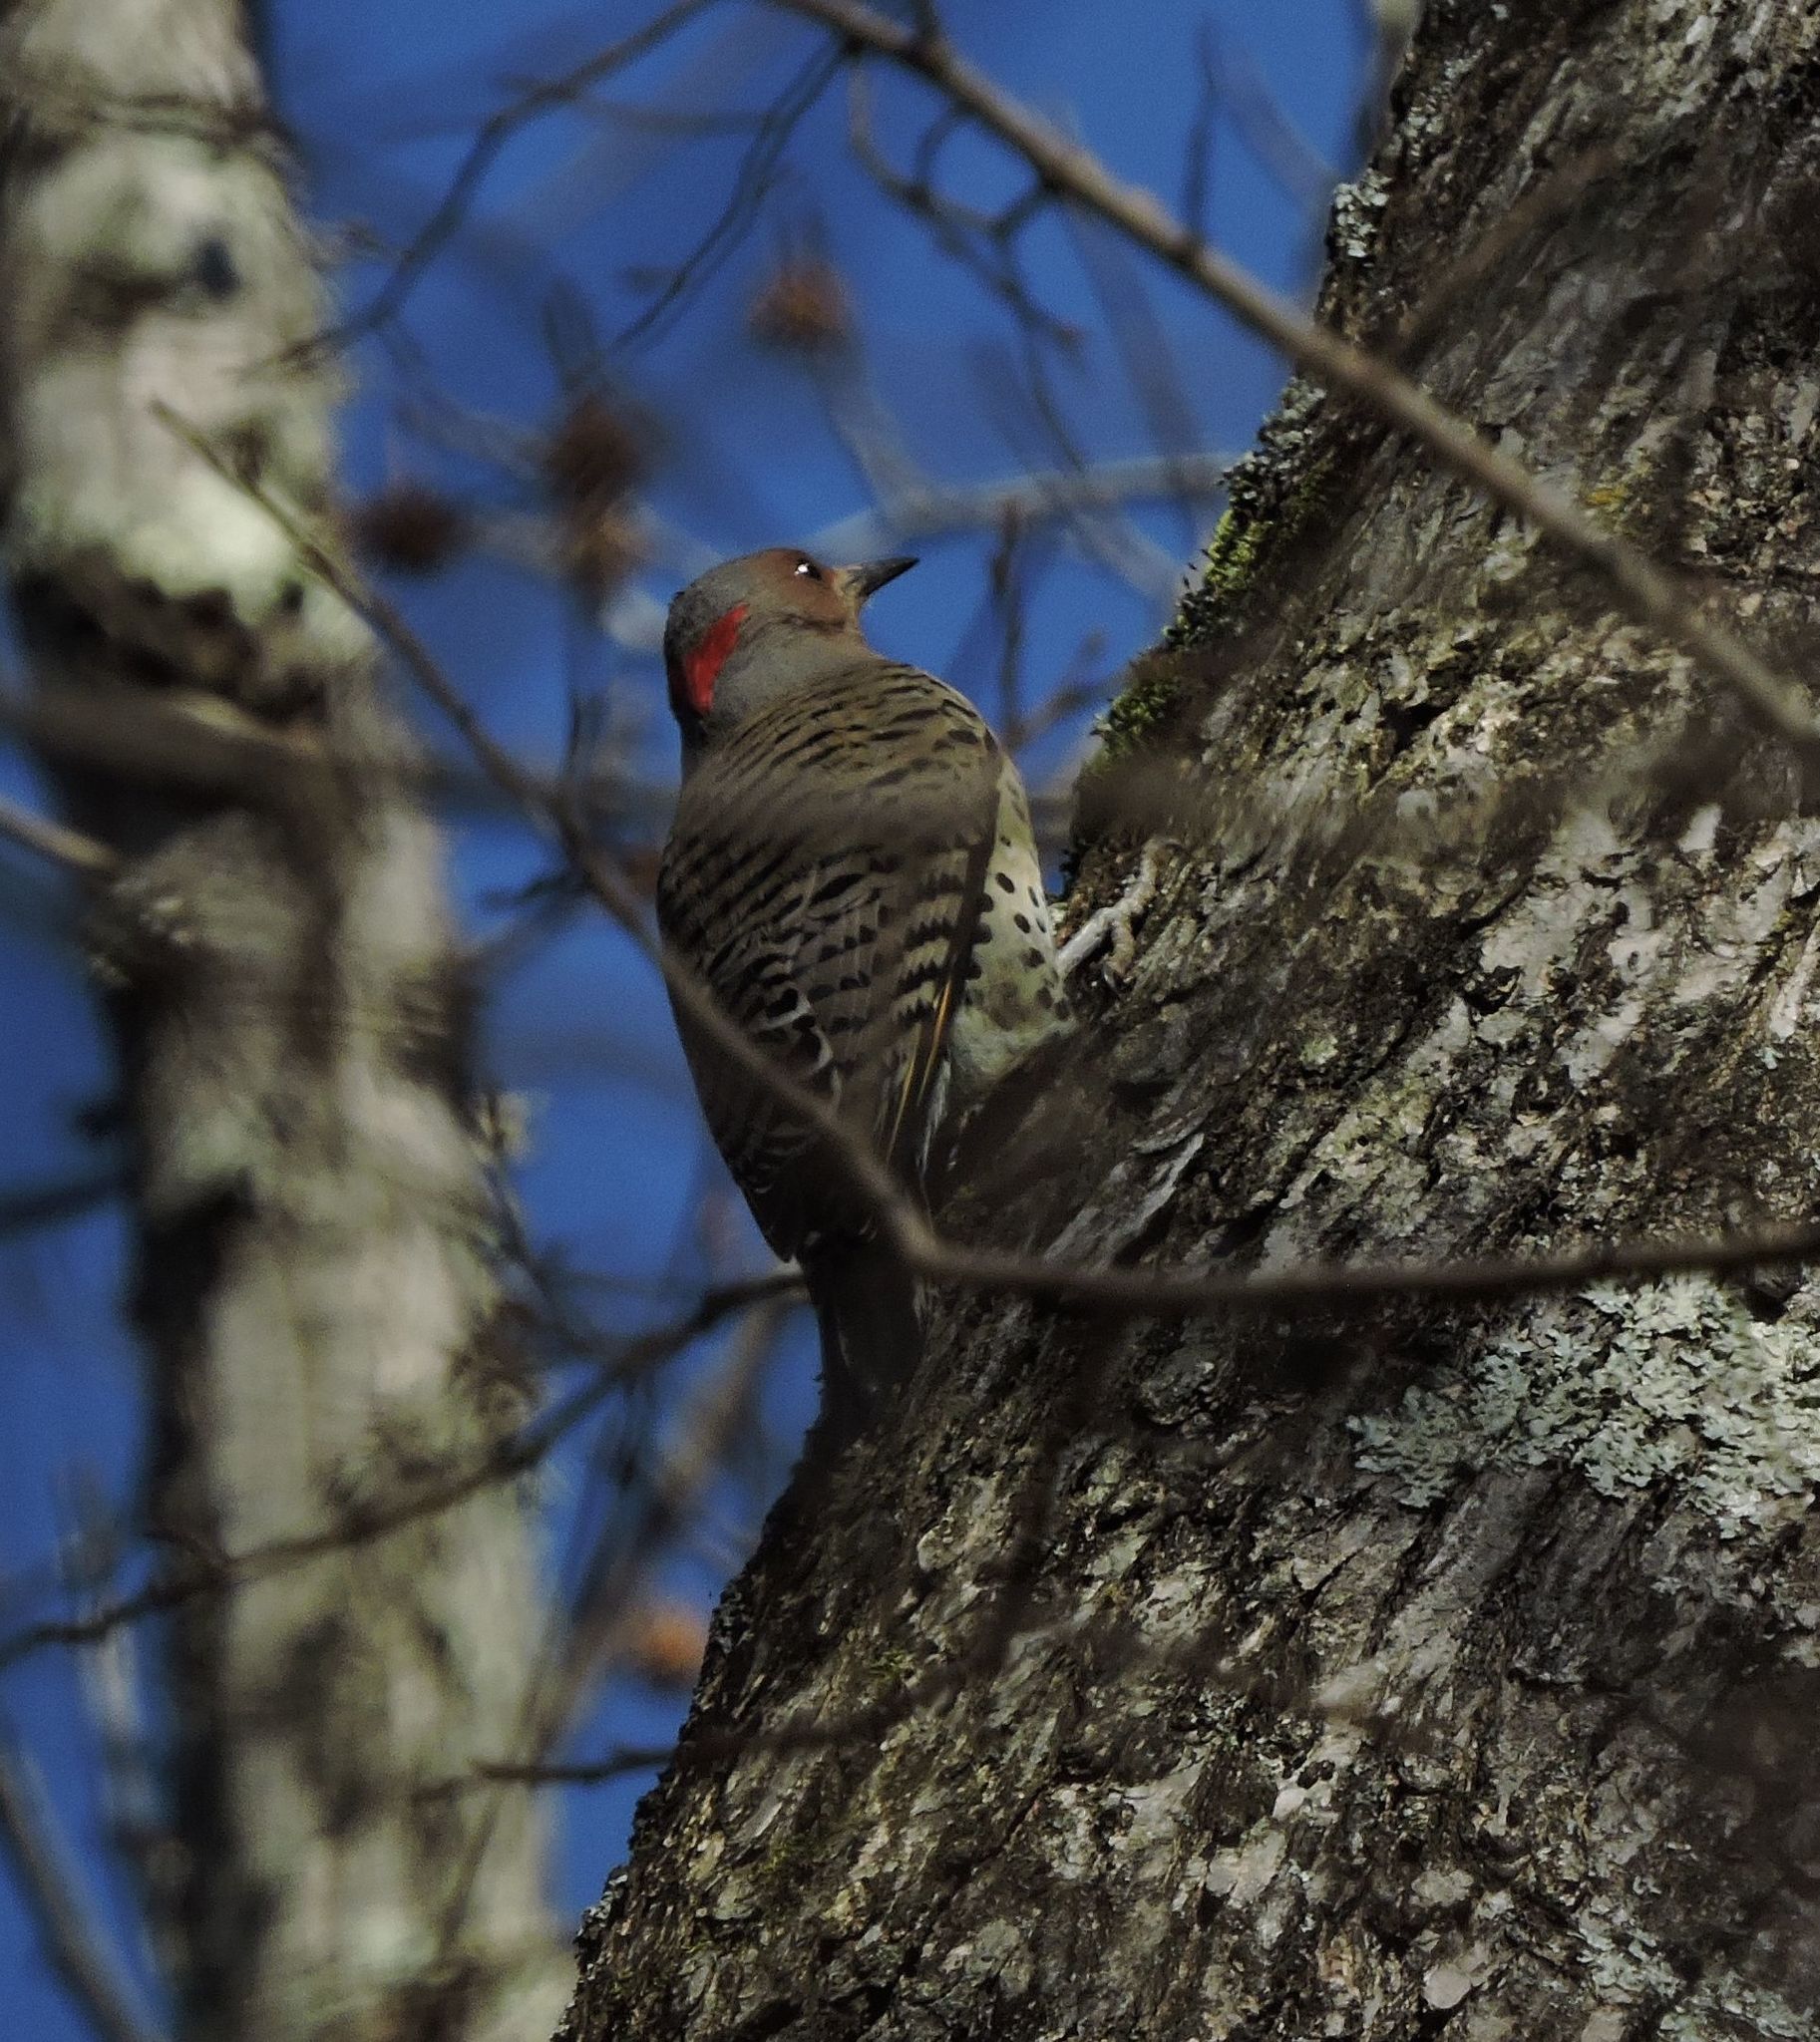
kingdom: Animalia
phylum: Chordata
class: Aves
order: Piciformes
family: Picidae
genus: Colaptes
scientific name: Colaptes auratus
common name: Northern flicker
